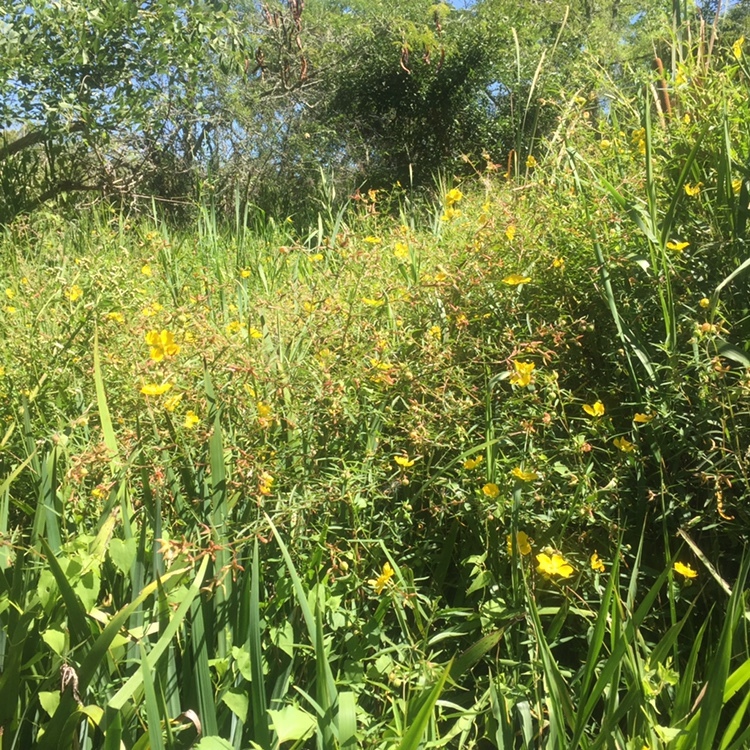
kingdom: Plantae
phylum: Tracheophyta
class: Magnoliopsida
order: Myrtales
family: Onagraceae
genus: Ludwigia
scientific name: Ludwigia bonariensis
